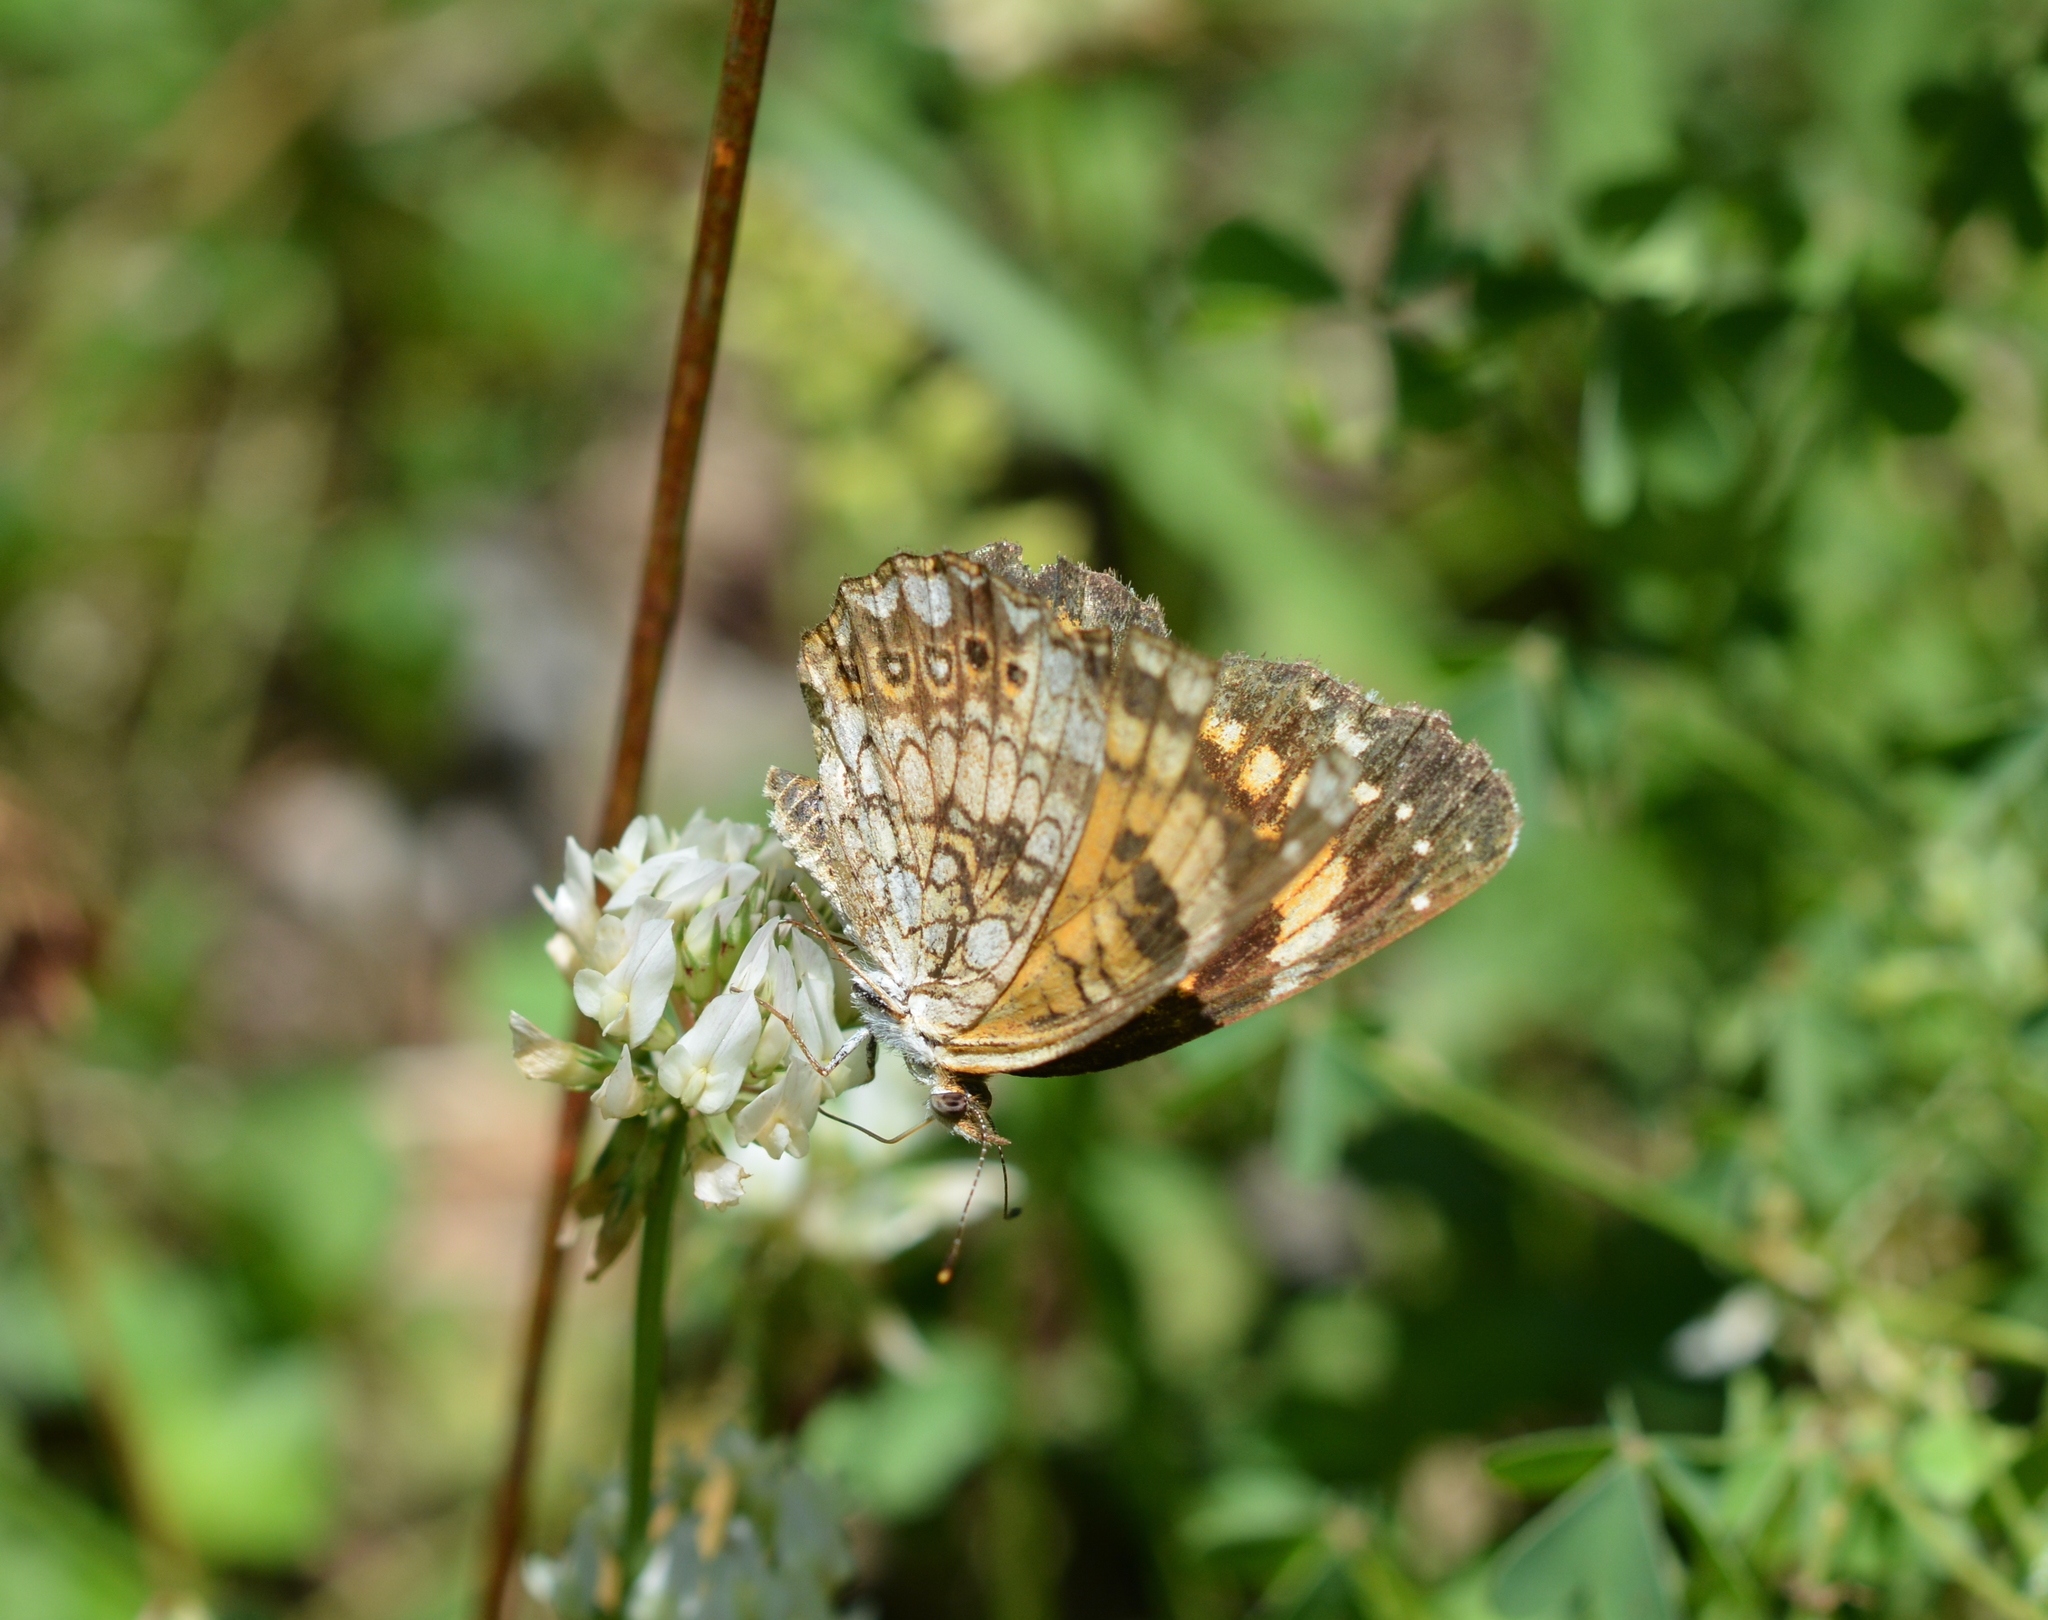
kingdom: Animalia
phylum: Arthropoda
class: Insecta
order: Lepidoptera
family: Nymphalidae
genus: Chlosyne
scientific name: Chlosyne nycteis
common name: Silvery checkerspot
